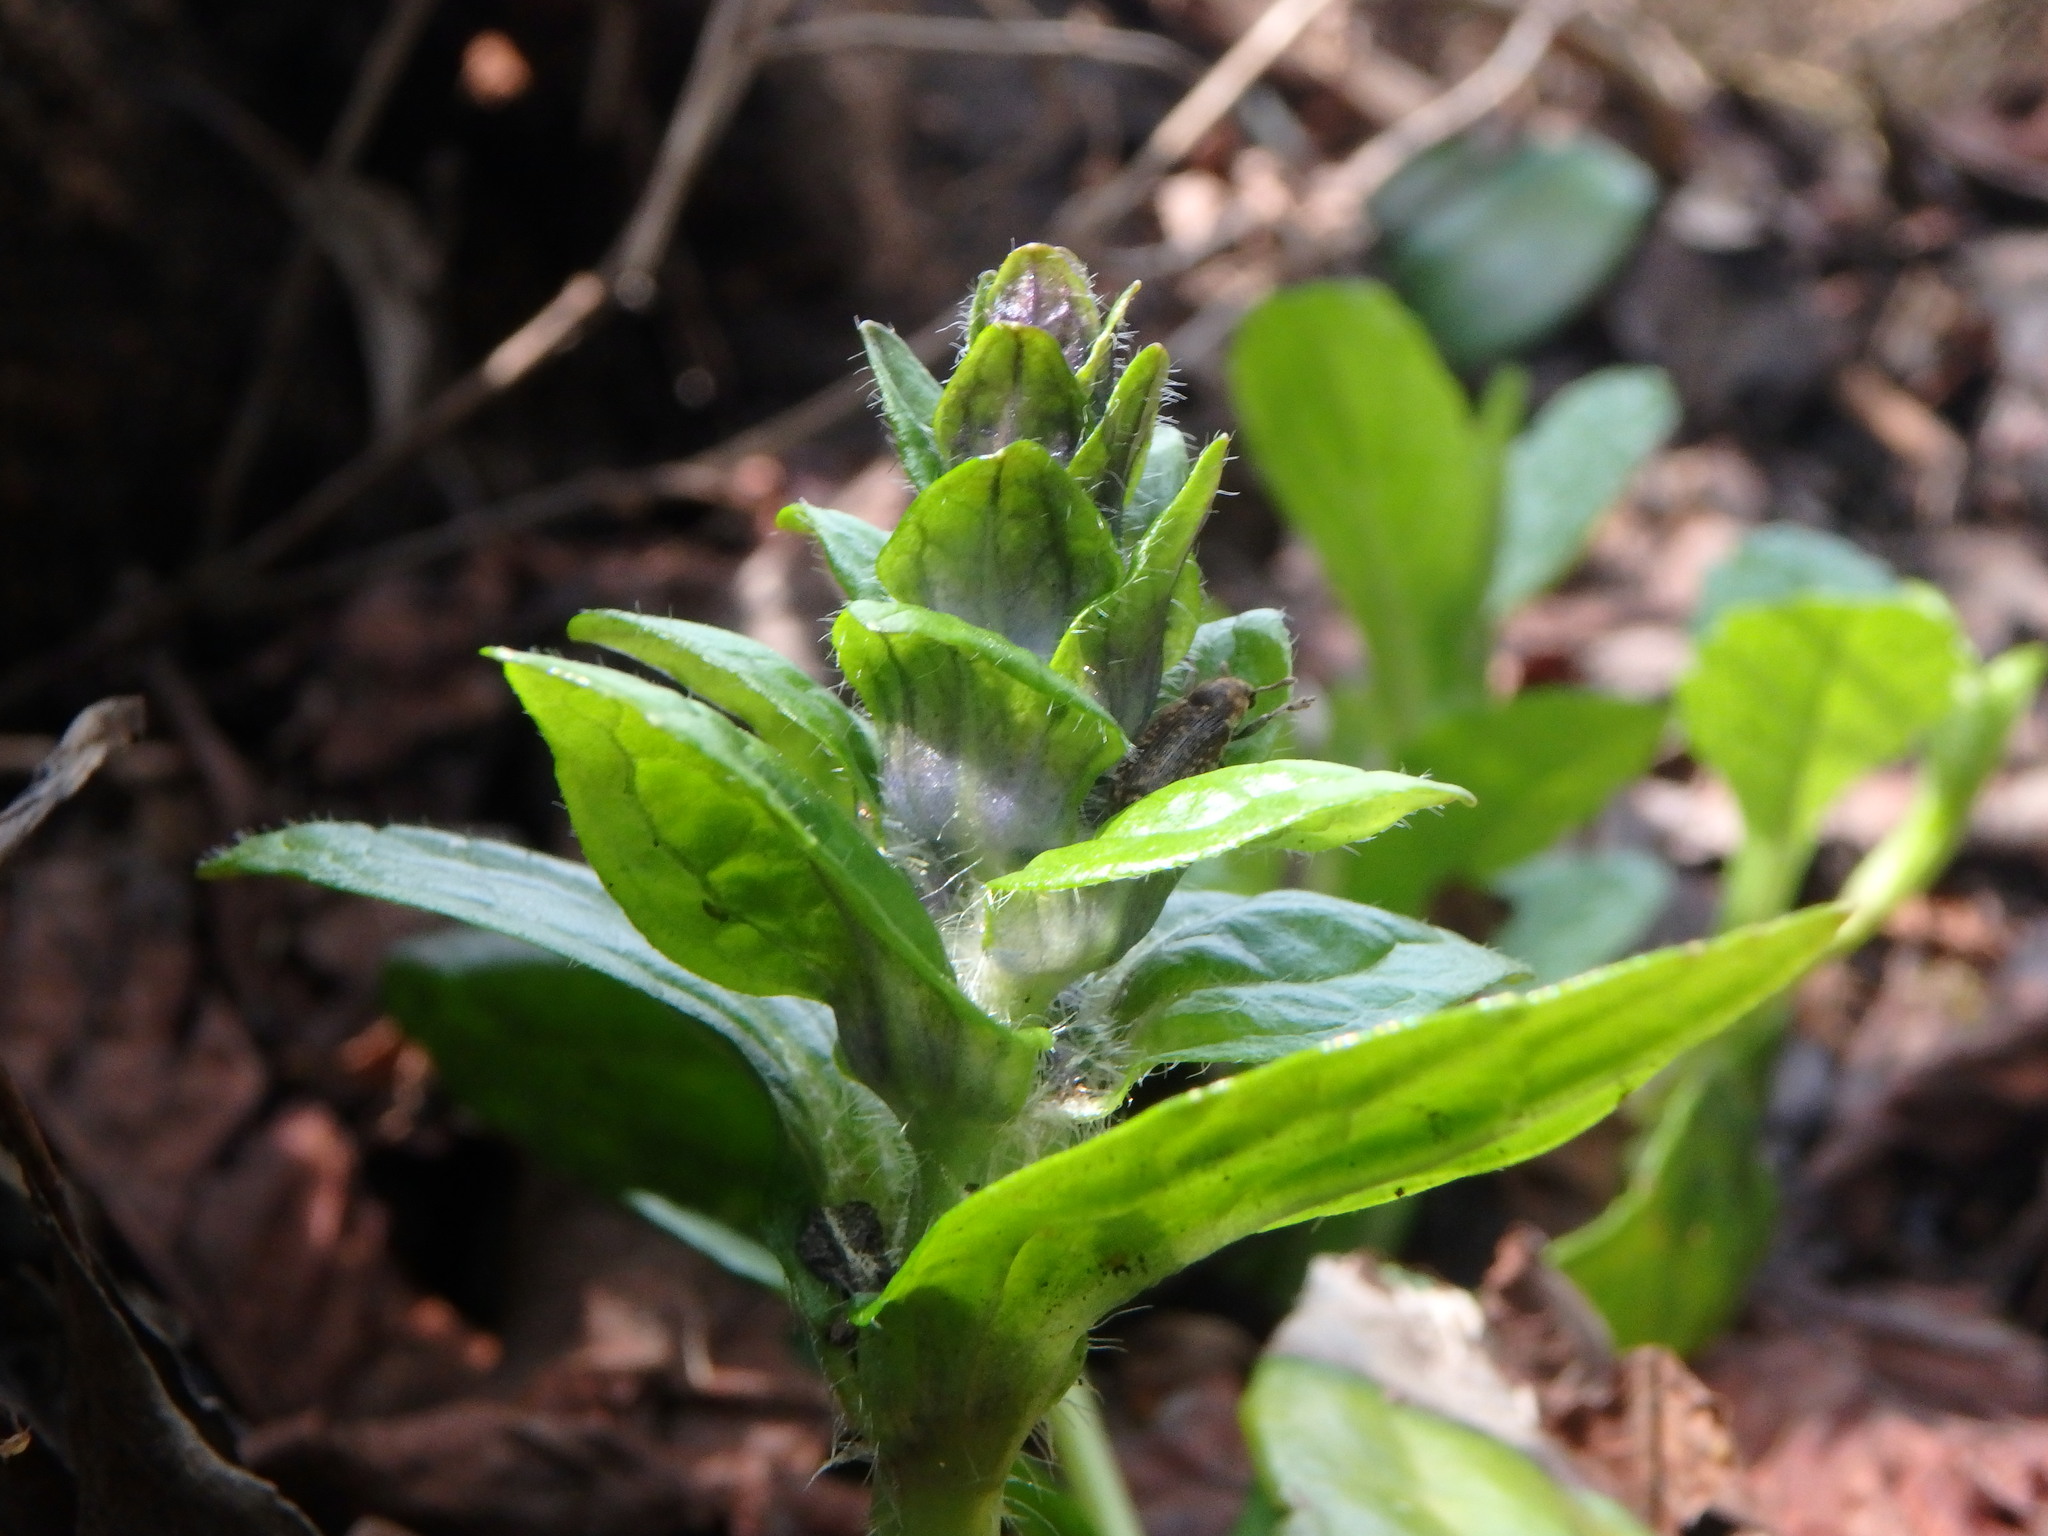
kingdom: Plantae
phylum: Tracheophyta
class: Magnoliopsida
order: Lamiales
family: Lamiaceae
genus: Ajuga
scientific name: Ajuga reptans
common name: Bugle
